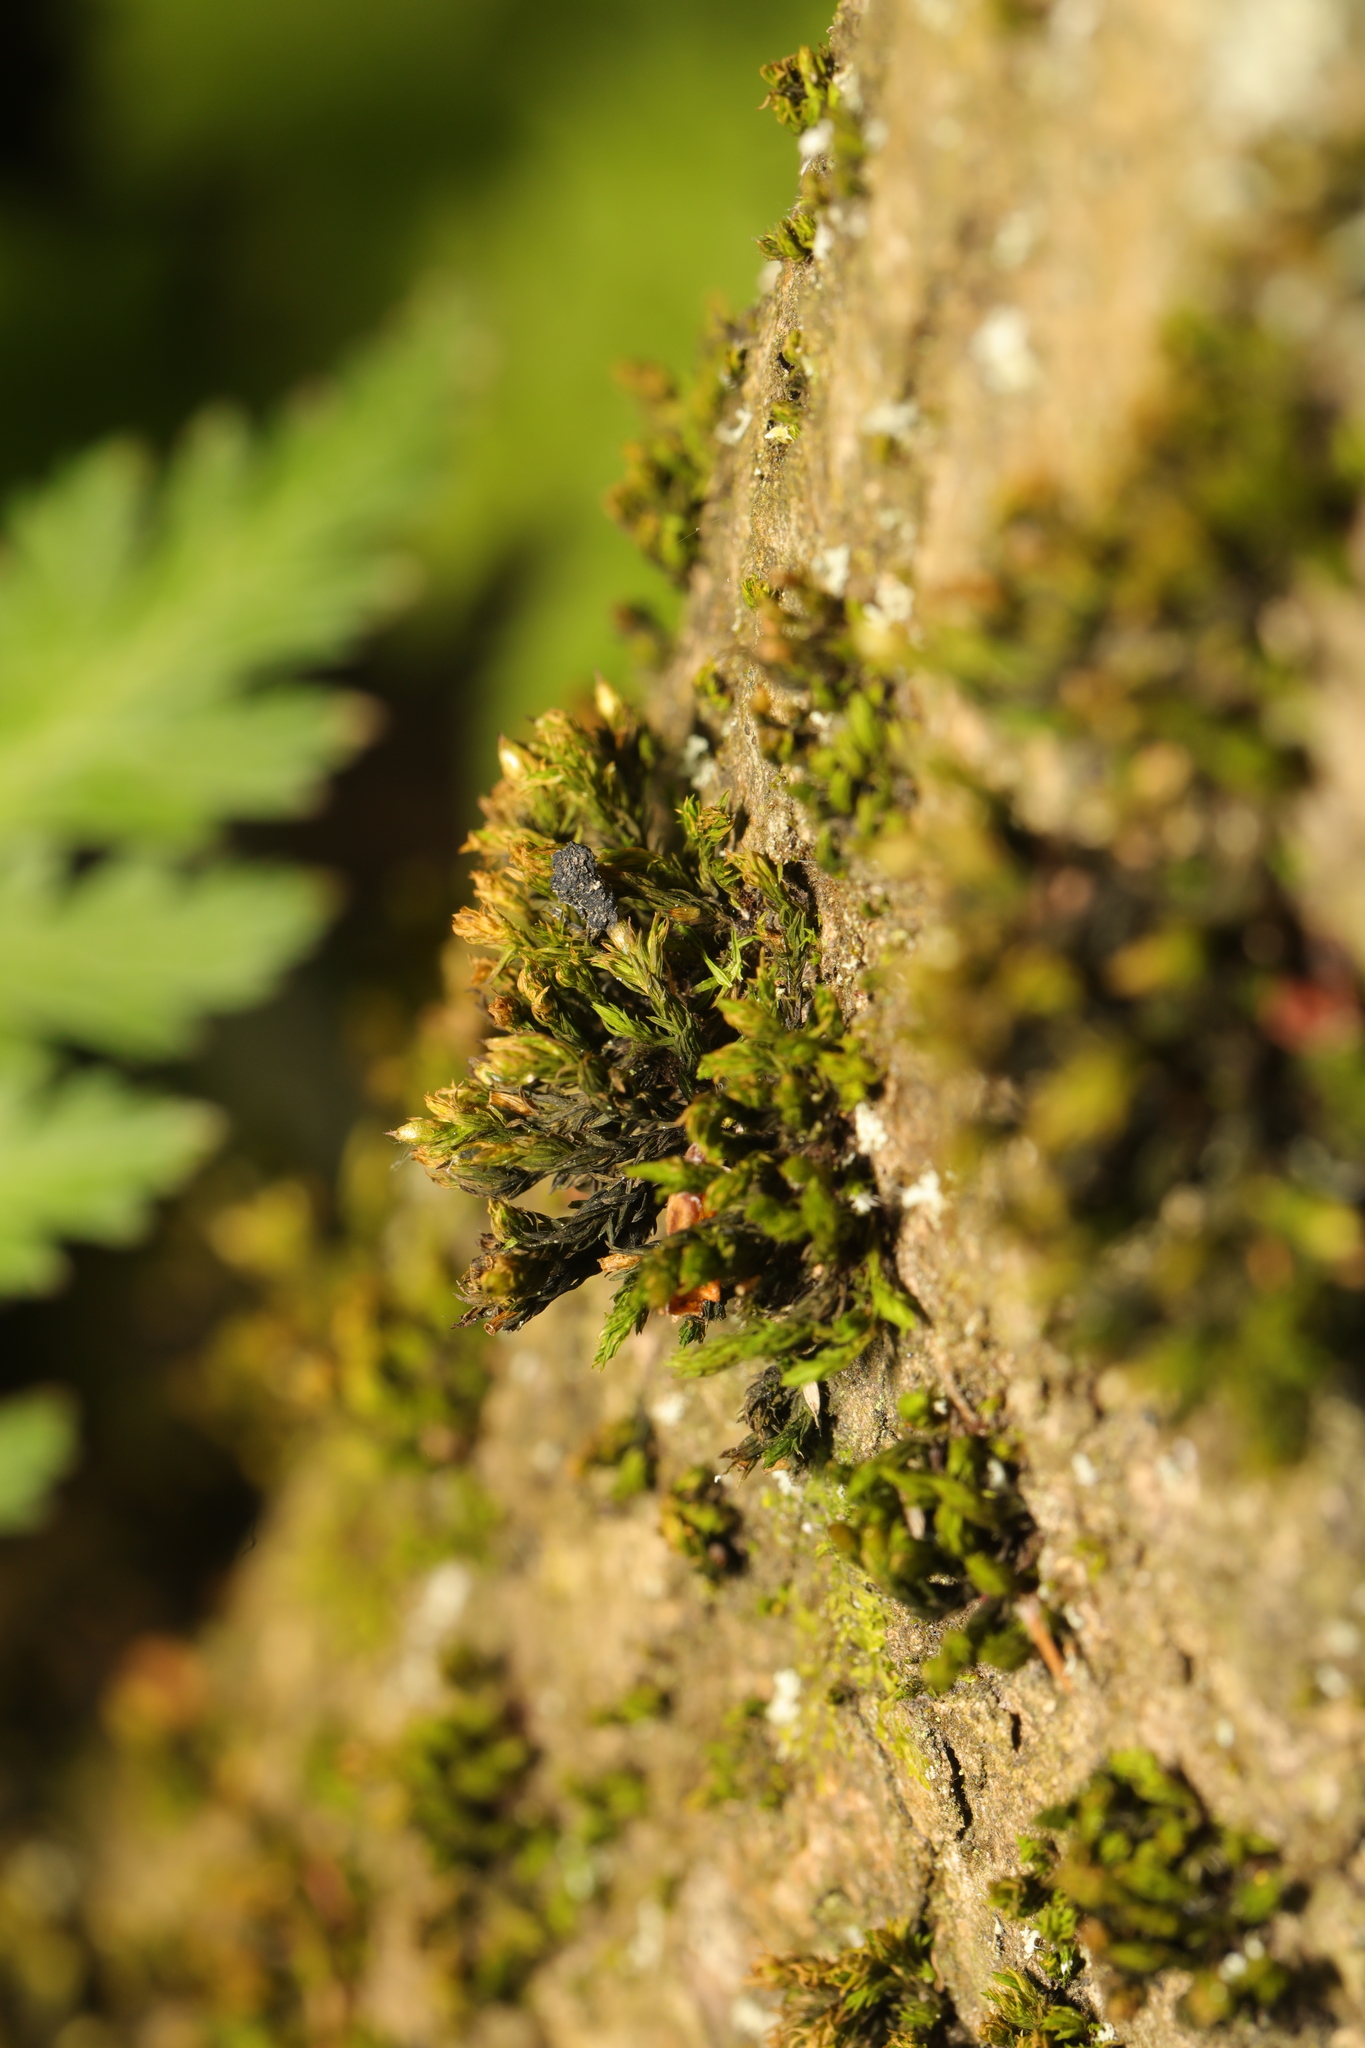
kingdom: Plantae
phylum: Bryophyta
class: Bryopsida
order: Orthotrichales
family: Orthotrichaceae
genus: Lewinskya
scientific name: Lewinskya affinis
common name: Wood bristle-moss
